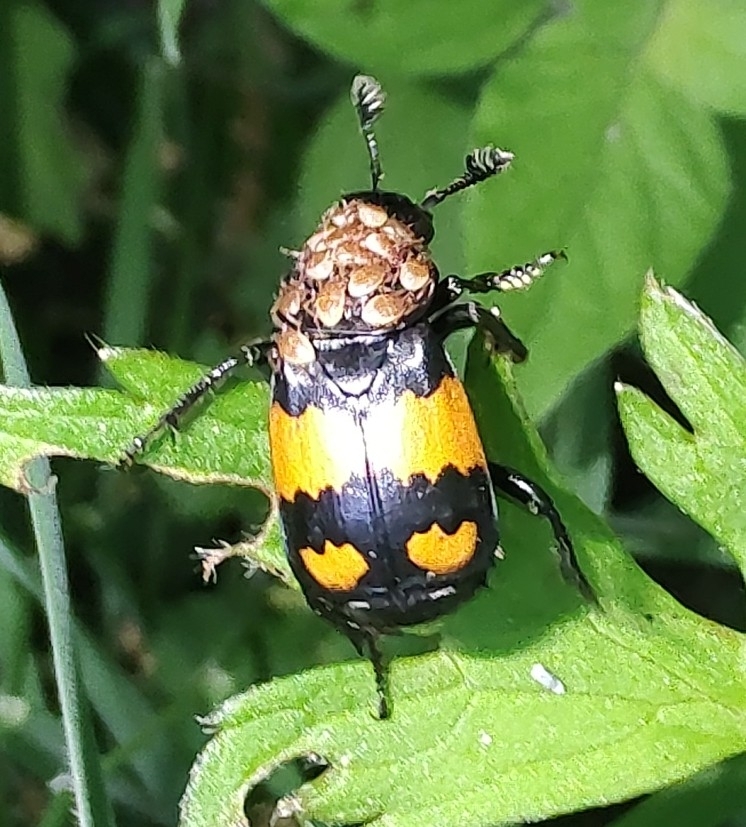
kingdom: Animalia
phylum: Arthropoda
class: Insecta
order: Coleoptera
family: Staphylinidae
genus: Nicrophorus
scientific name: Nicrophorus vespilloides
